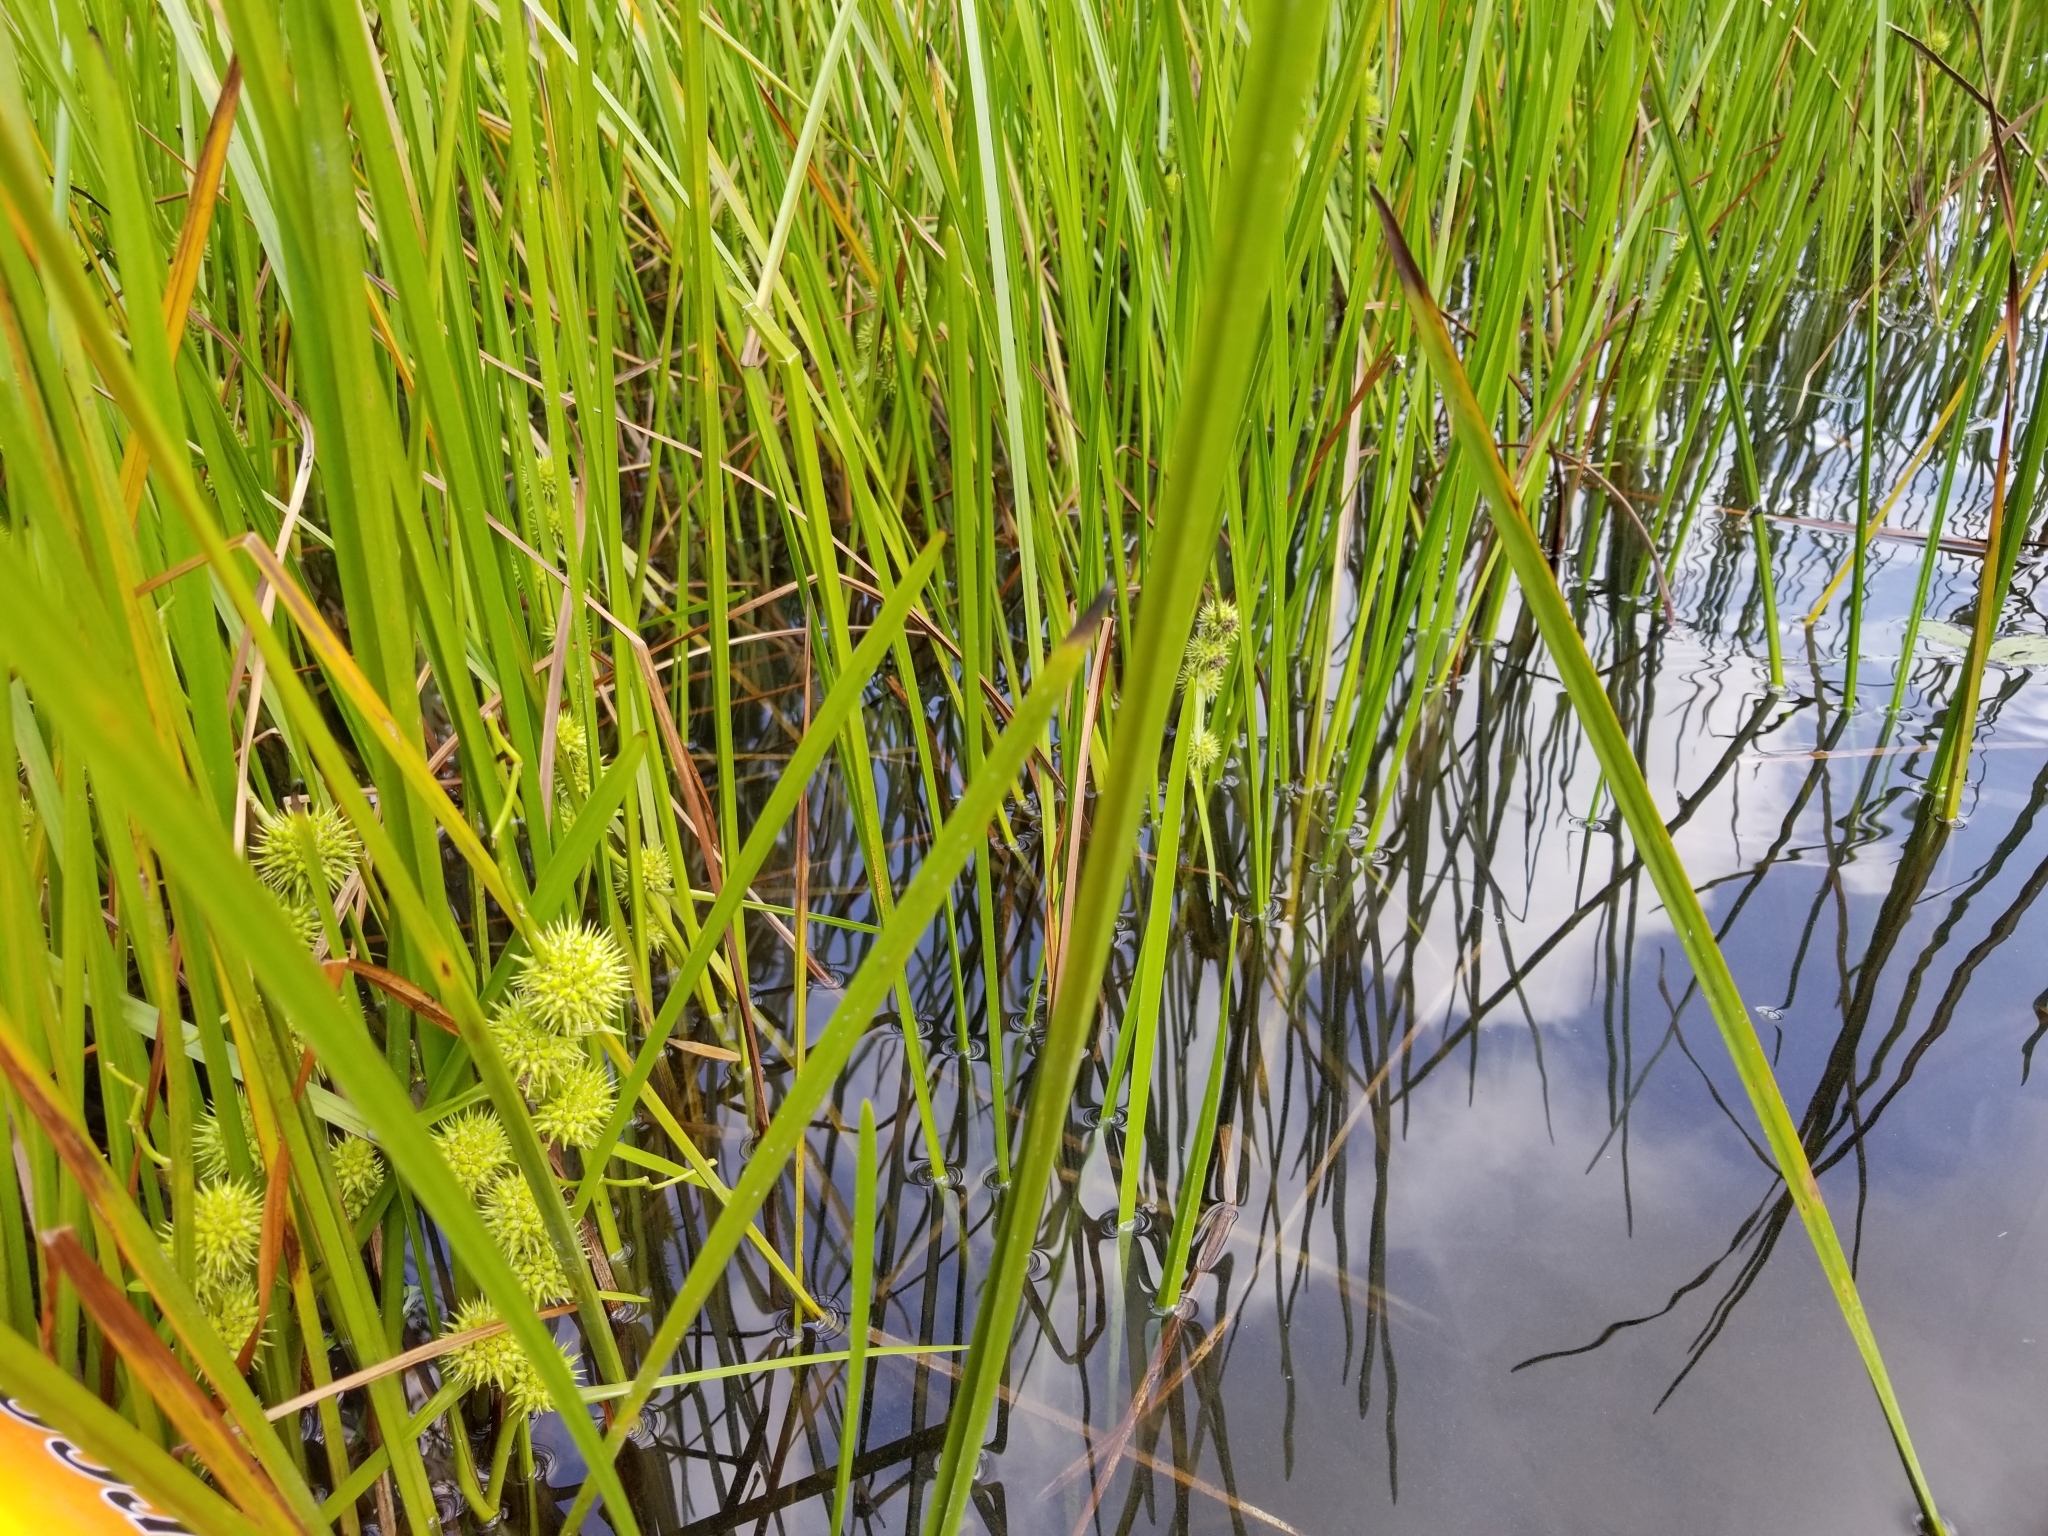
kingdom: Plantae
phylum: Tracheophyta
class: Liliopsida
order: Poales
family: Typhaceae
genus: Sparganium
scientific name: Sparganium americanum
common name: American burreed
